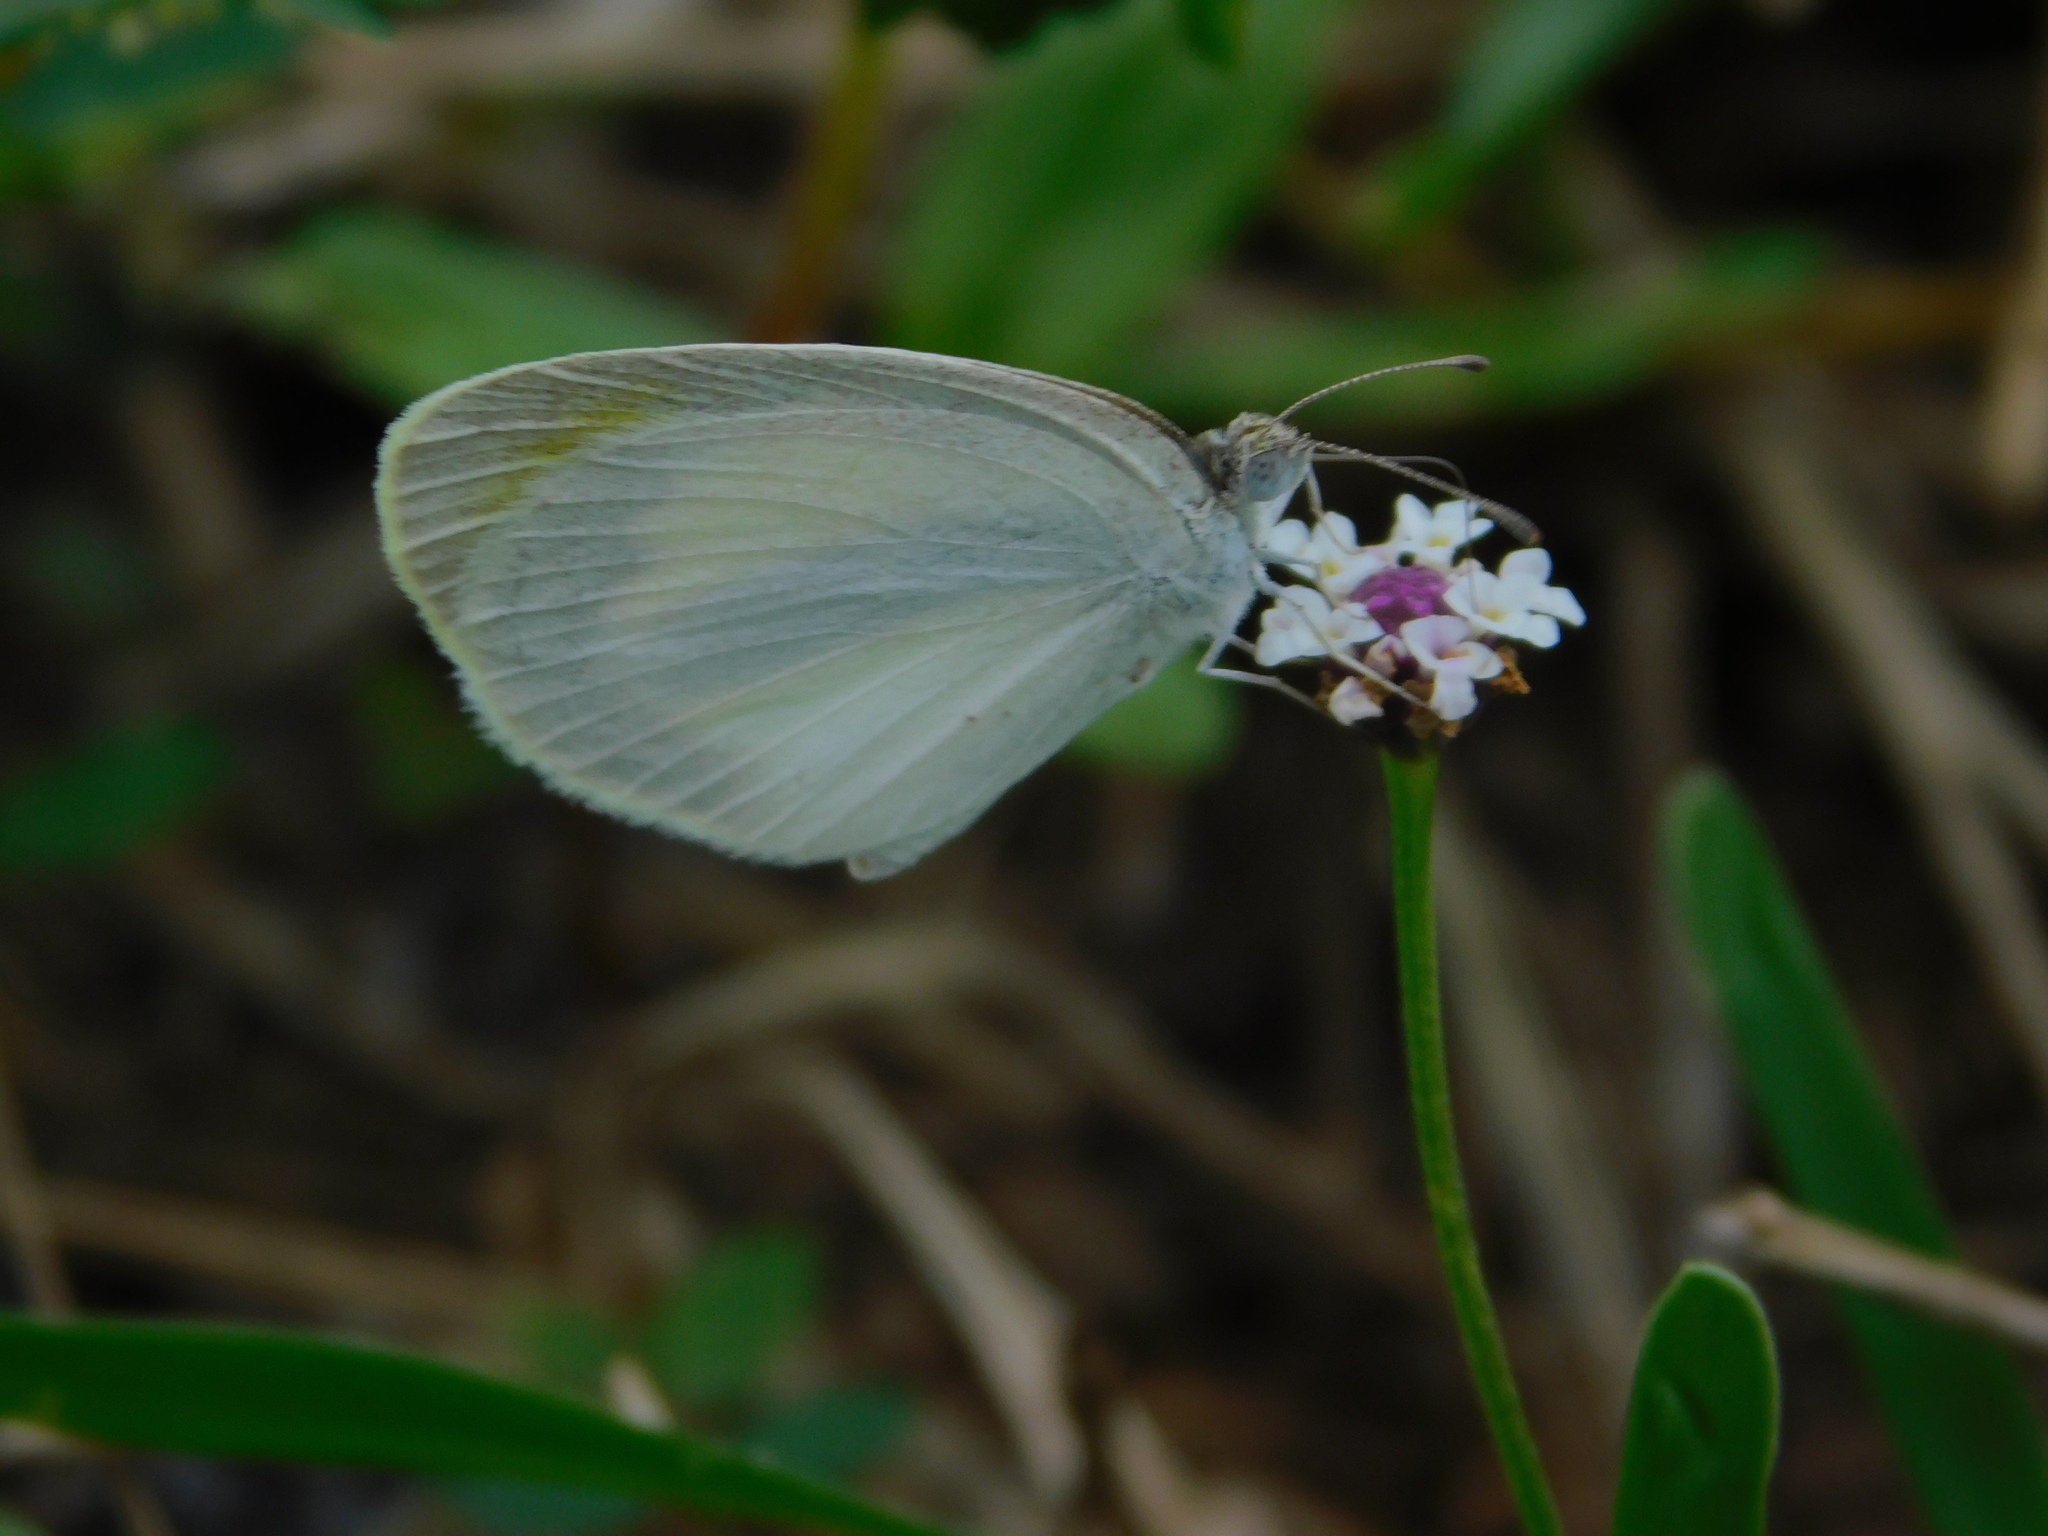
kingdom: Animalia
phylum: Arthropoda
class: Insecta
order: Lepidoptera
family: Pieridae
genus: Eurema
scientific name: Eurema daira
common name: Barred sulphur
